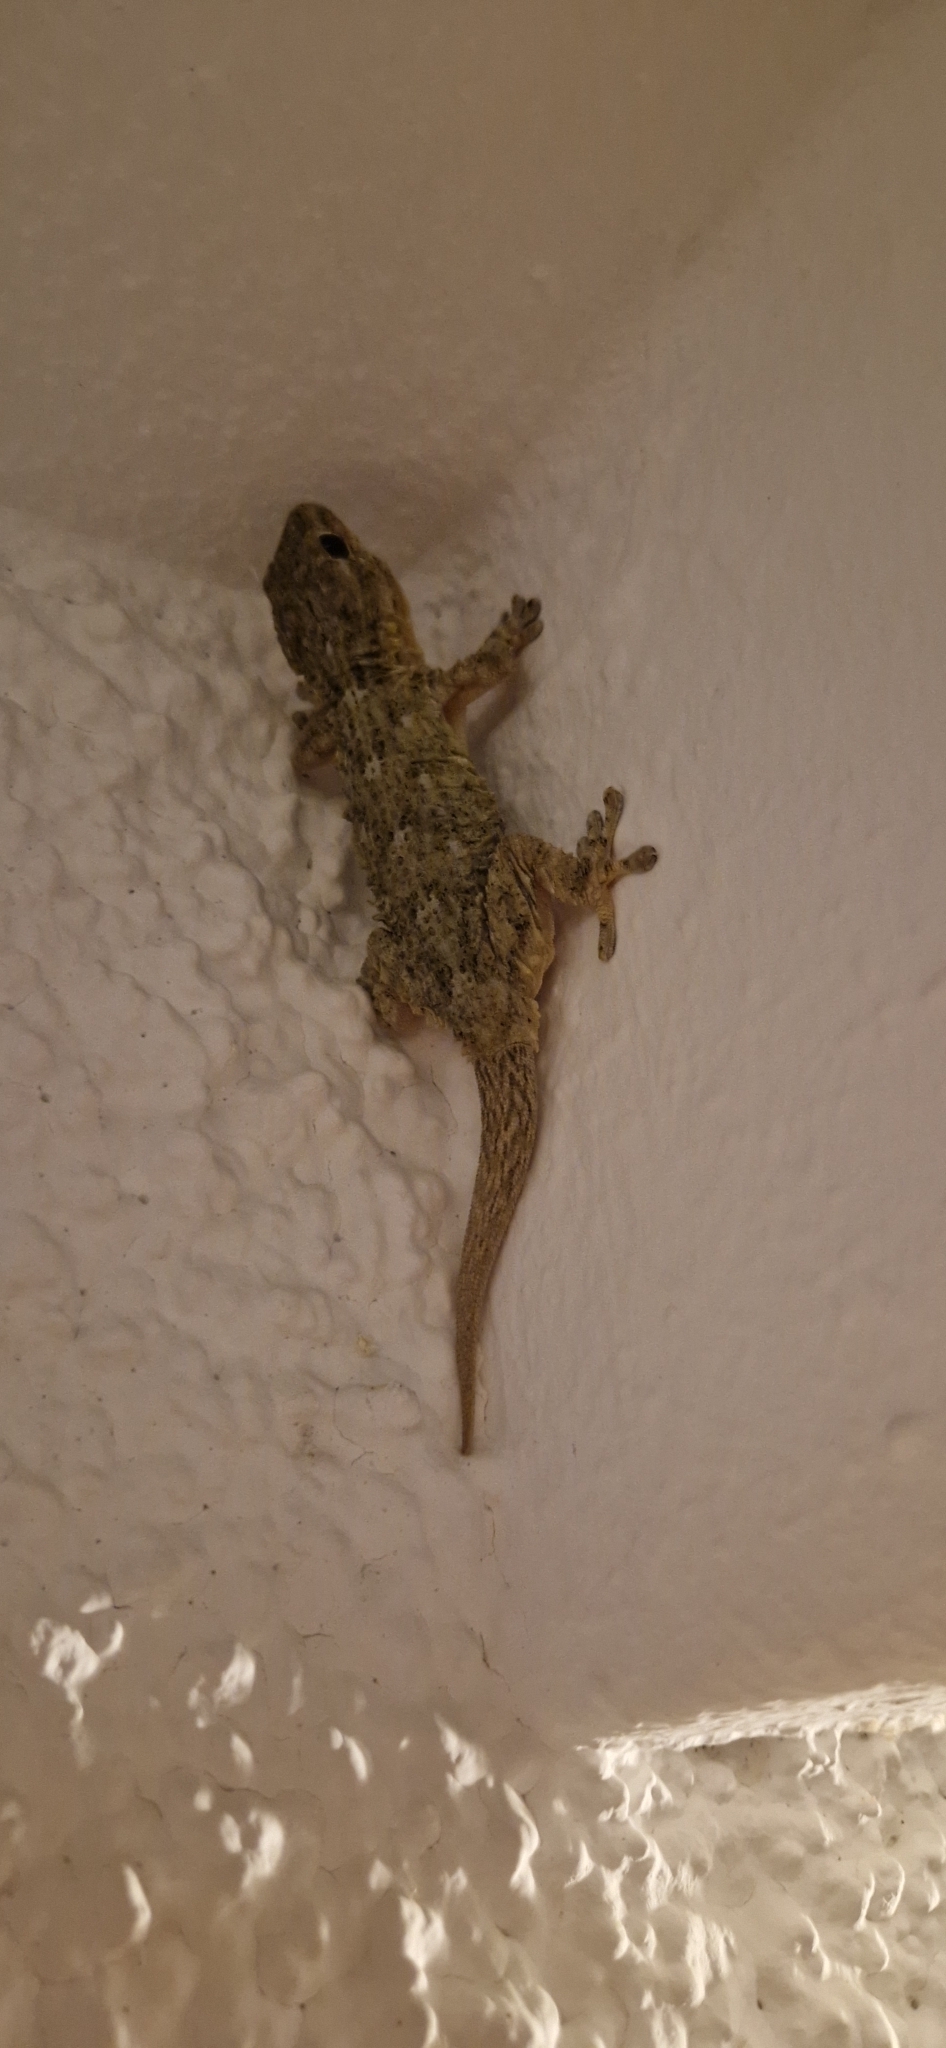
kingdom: Animalia
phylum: Chordata
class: Squamata
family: Phyllodactylidae
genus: Tarentola
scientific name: Tarentola mauritanica
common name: Moorish gecko
